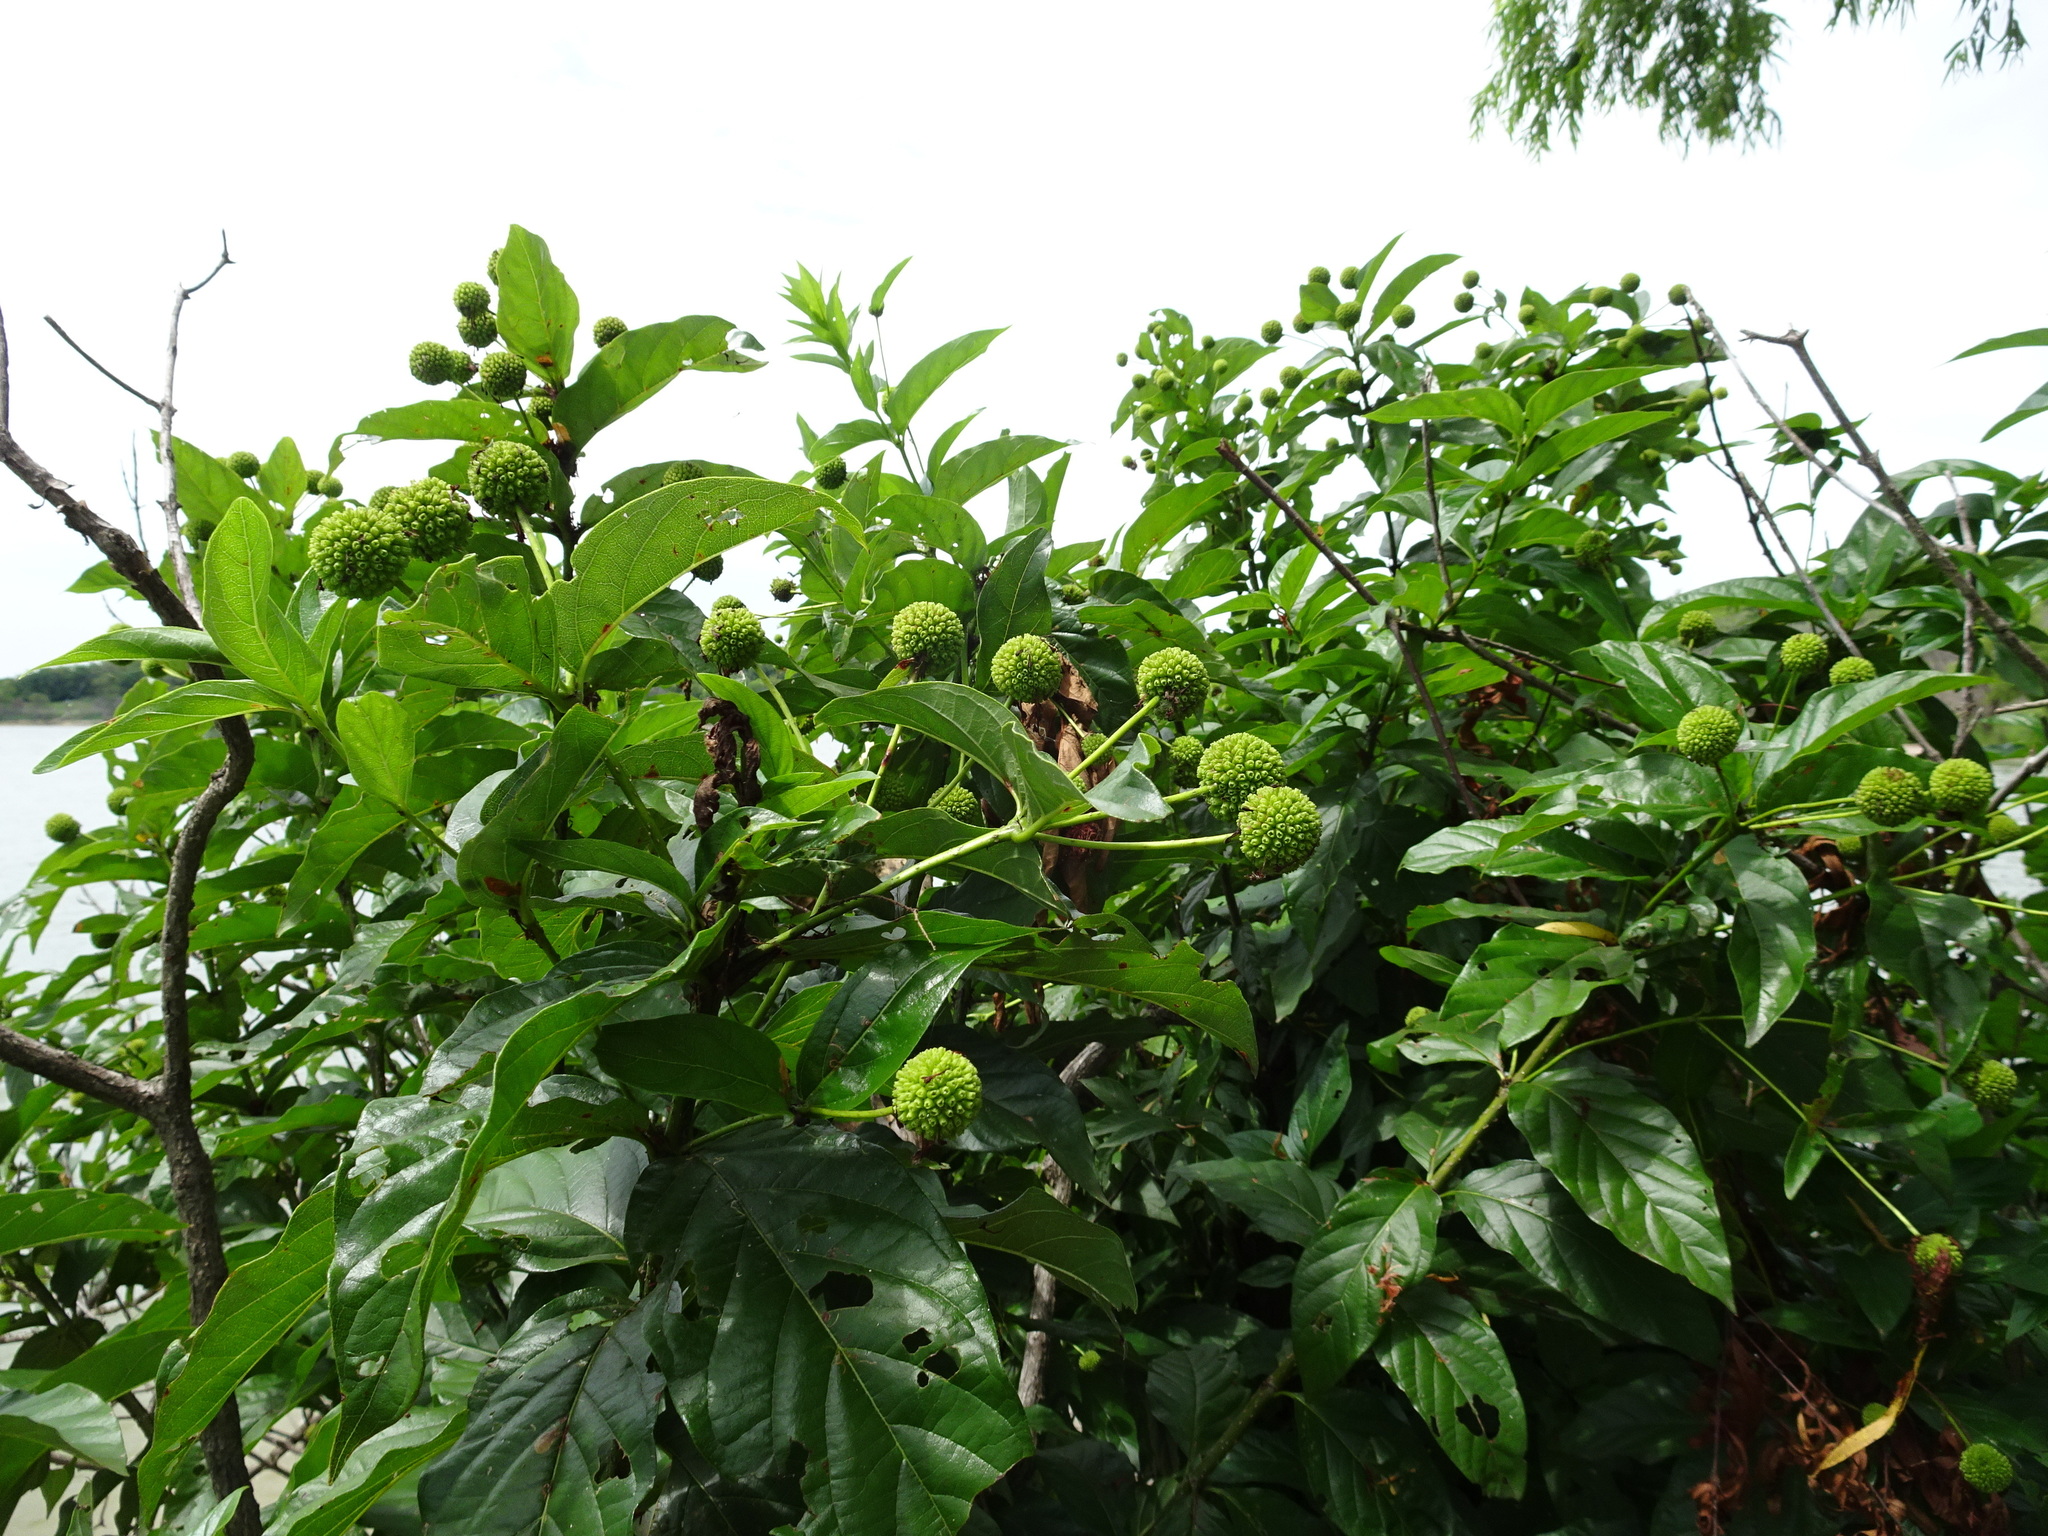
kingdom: Plantae
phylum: Tracheophyta
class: Magnoliopsida
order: Gentianales
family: Rubiaceae
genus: Cephalanthus
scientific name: Cephalanthus occidentalis
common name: Button-willow
